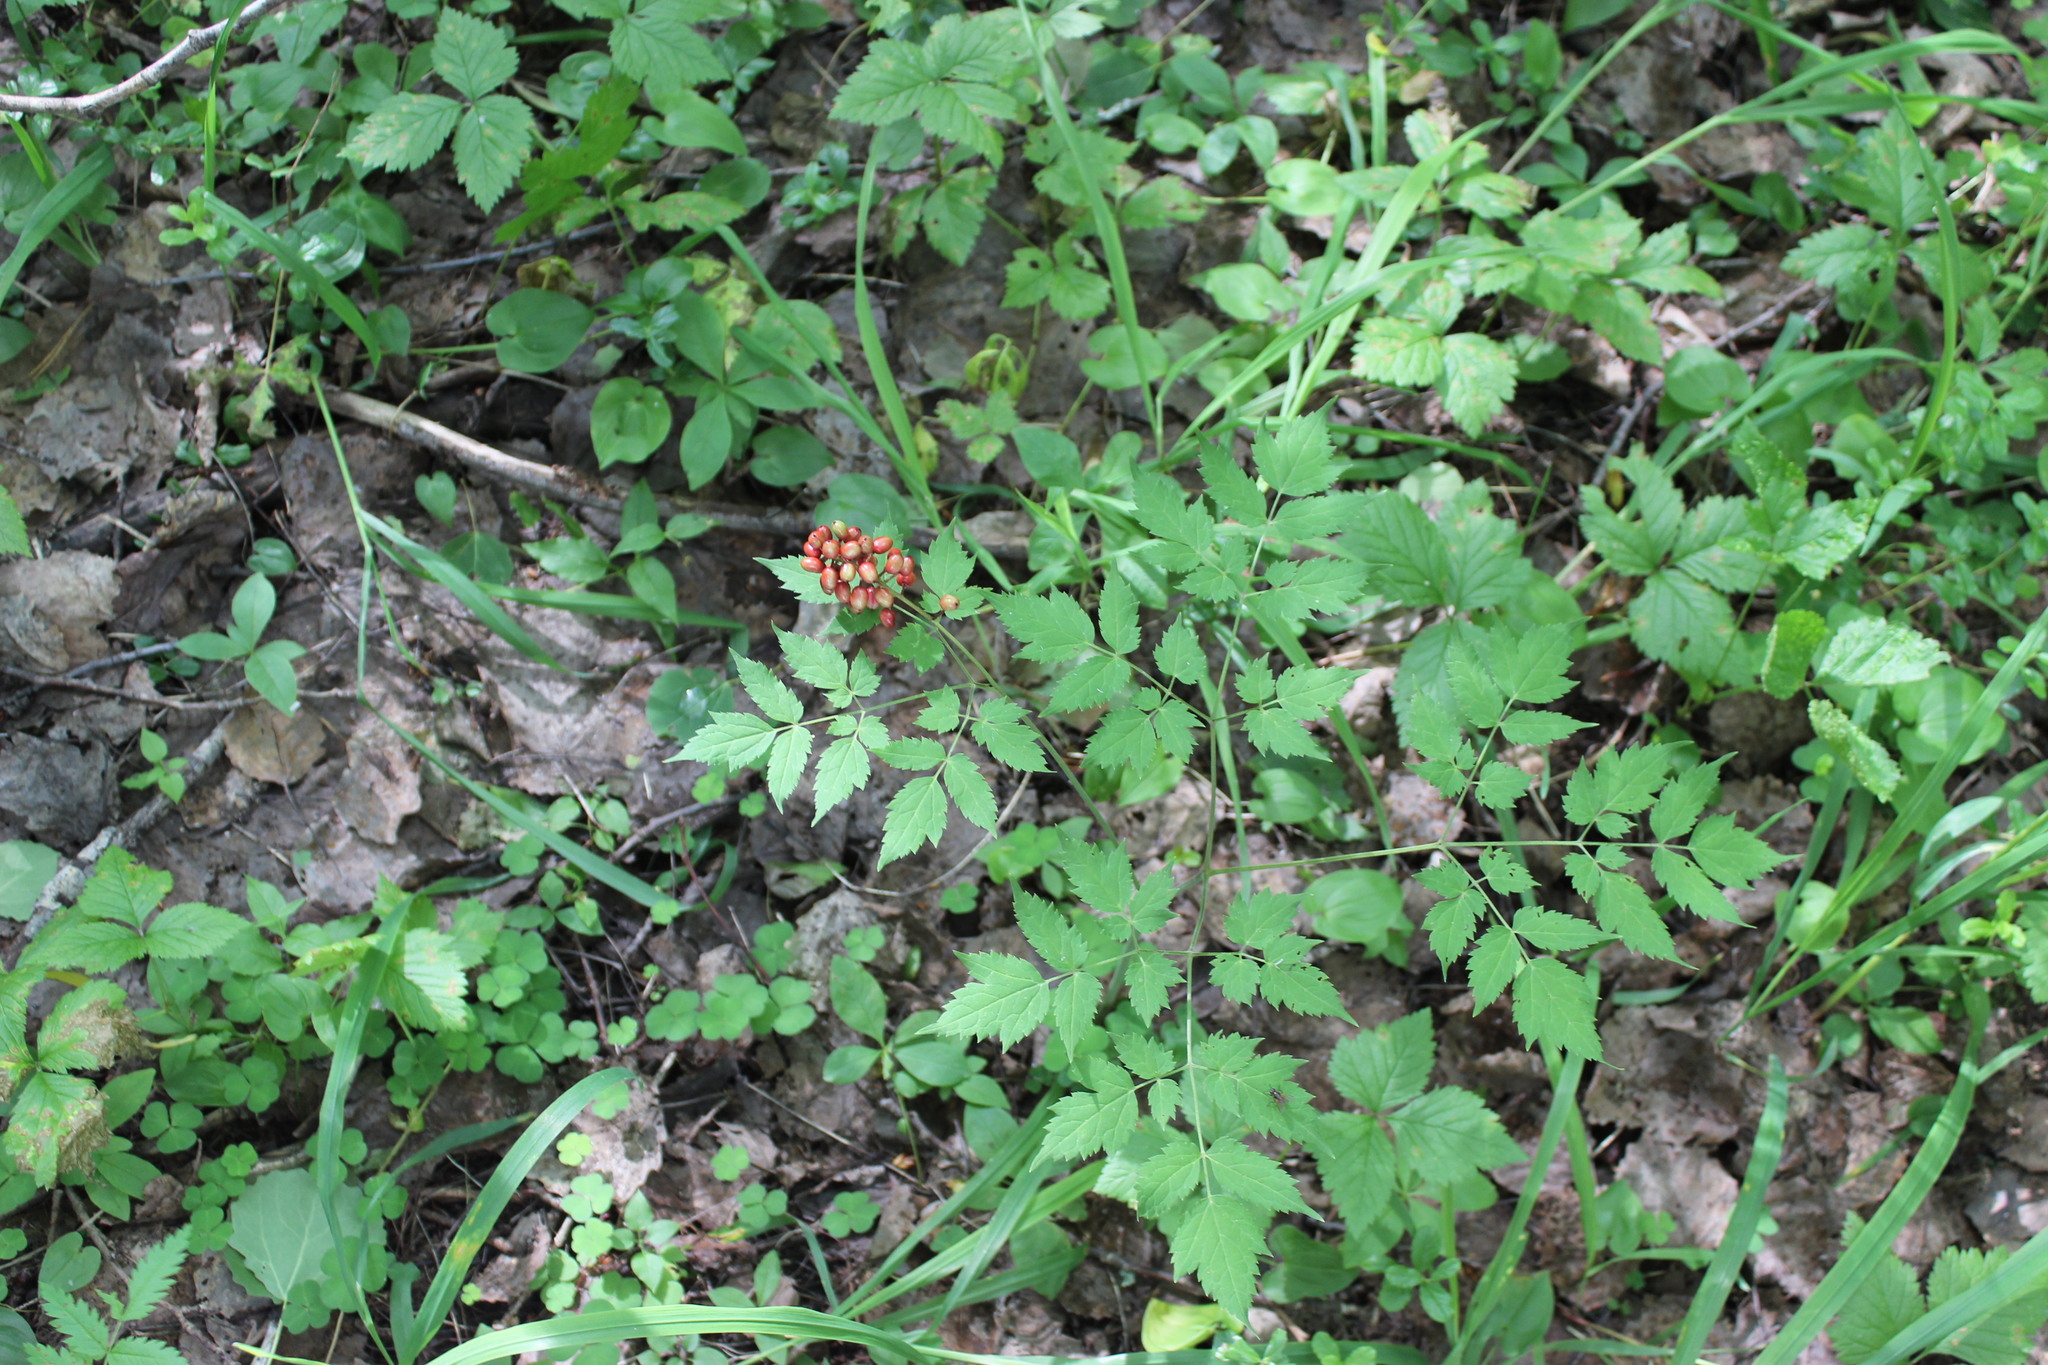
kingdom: Plantae
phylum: Tracheophyta
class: Magnoliopsida
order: Ranunculales
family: Ranunculaceae
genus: Actaea
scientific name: Actaea erythrocarpa
